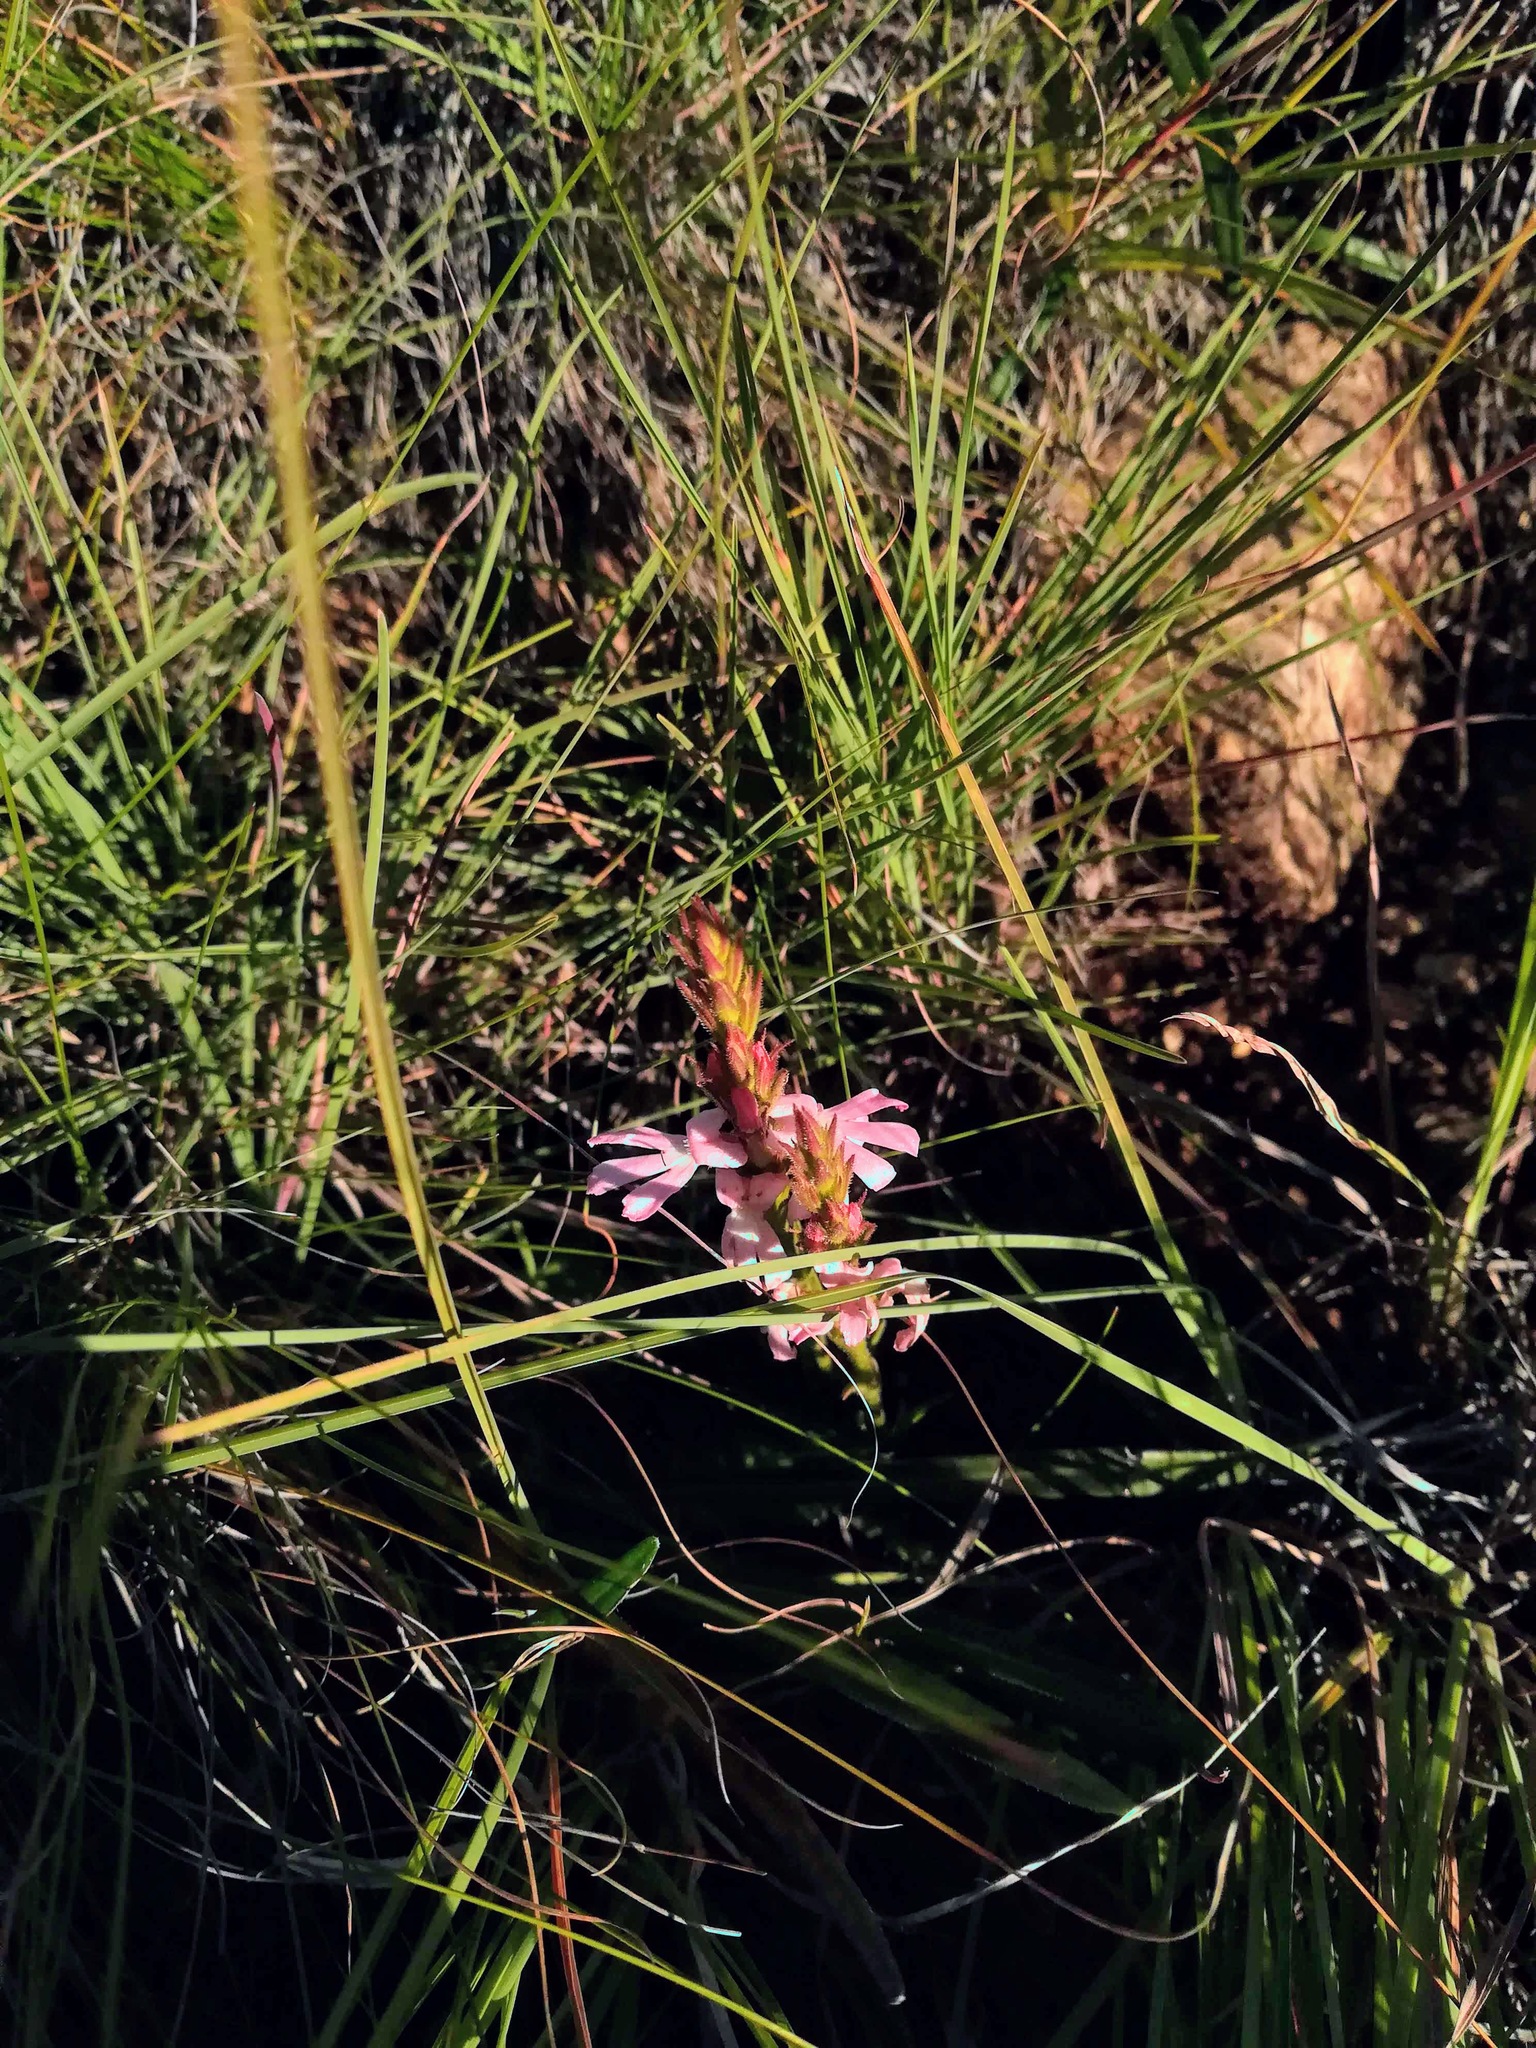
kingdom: Plantae
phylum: Tracheophyta
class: Magnoliopsida
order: Lamiales
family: Orobanchaceae
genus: Striga
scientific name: Striga elegans
